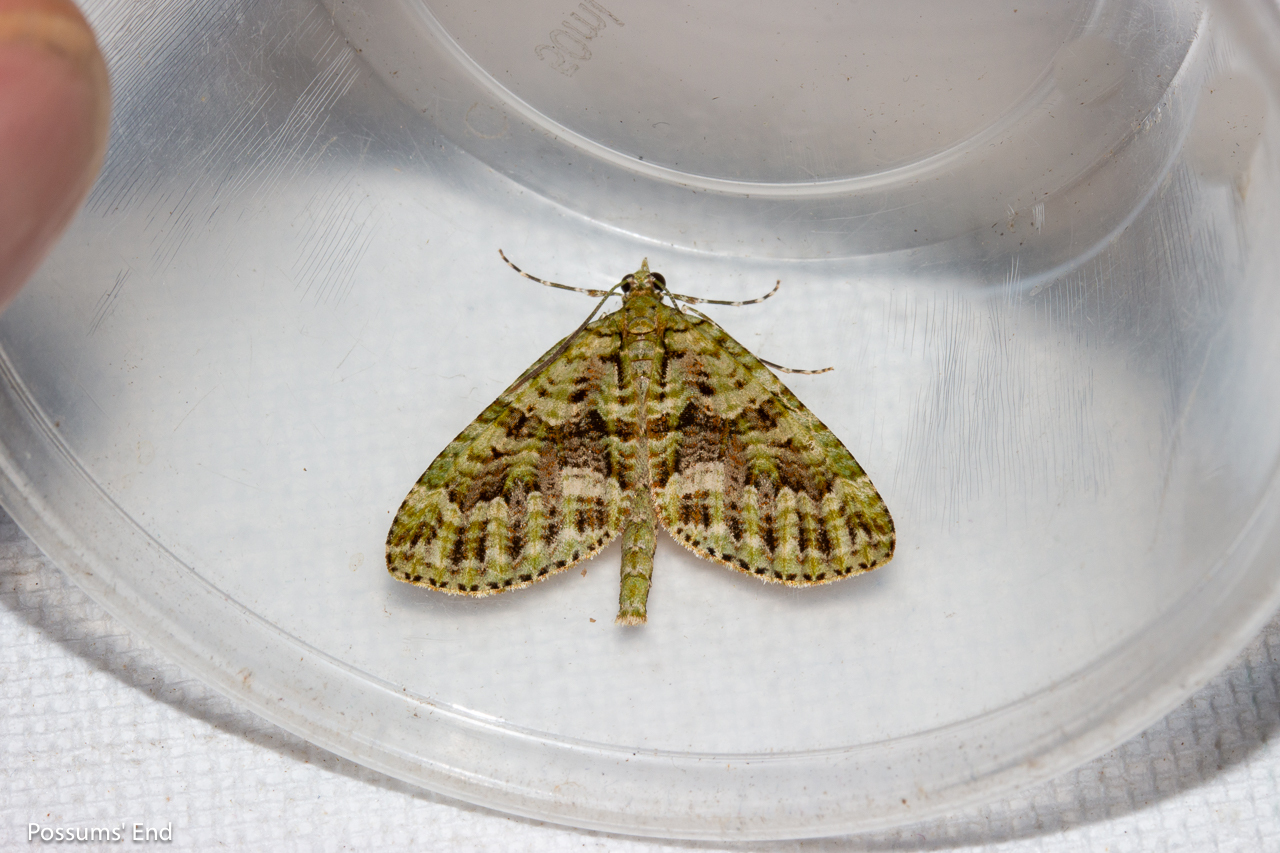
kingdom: Animalia
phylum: Arthropoda
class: Insecta
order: Lepidoptera
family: Geometridae
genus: Tatosoma
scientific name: Tatosoma agrionata
